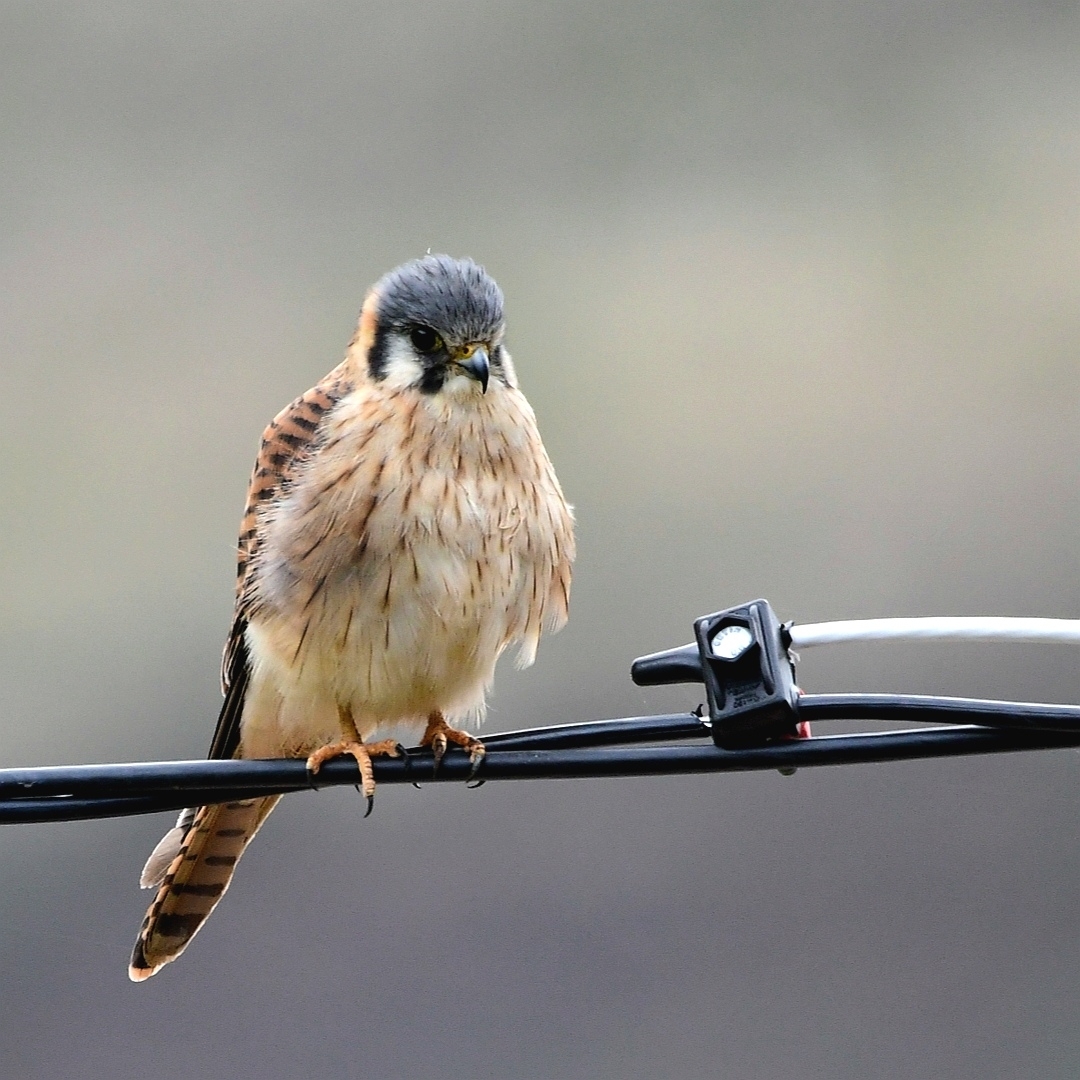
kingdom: Animalia
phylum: Chordata
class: Aves
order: Falconiformes
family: Falconidae
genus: Falco
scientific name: Falco sparverius
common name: American kestrel
